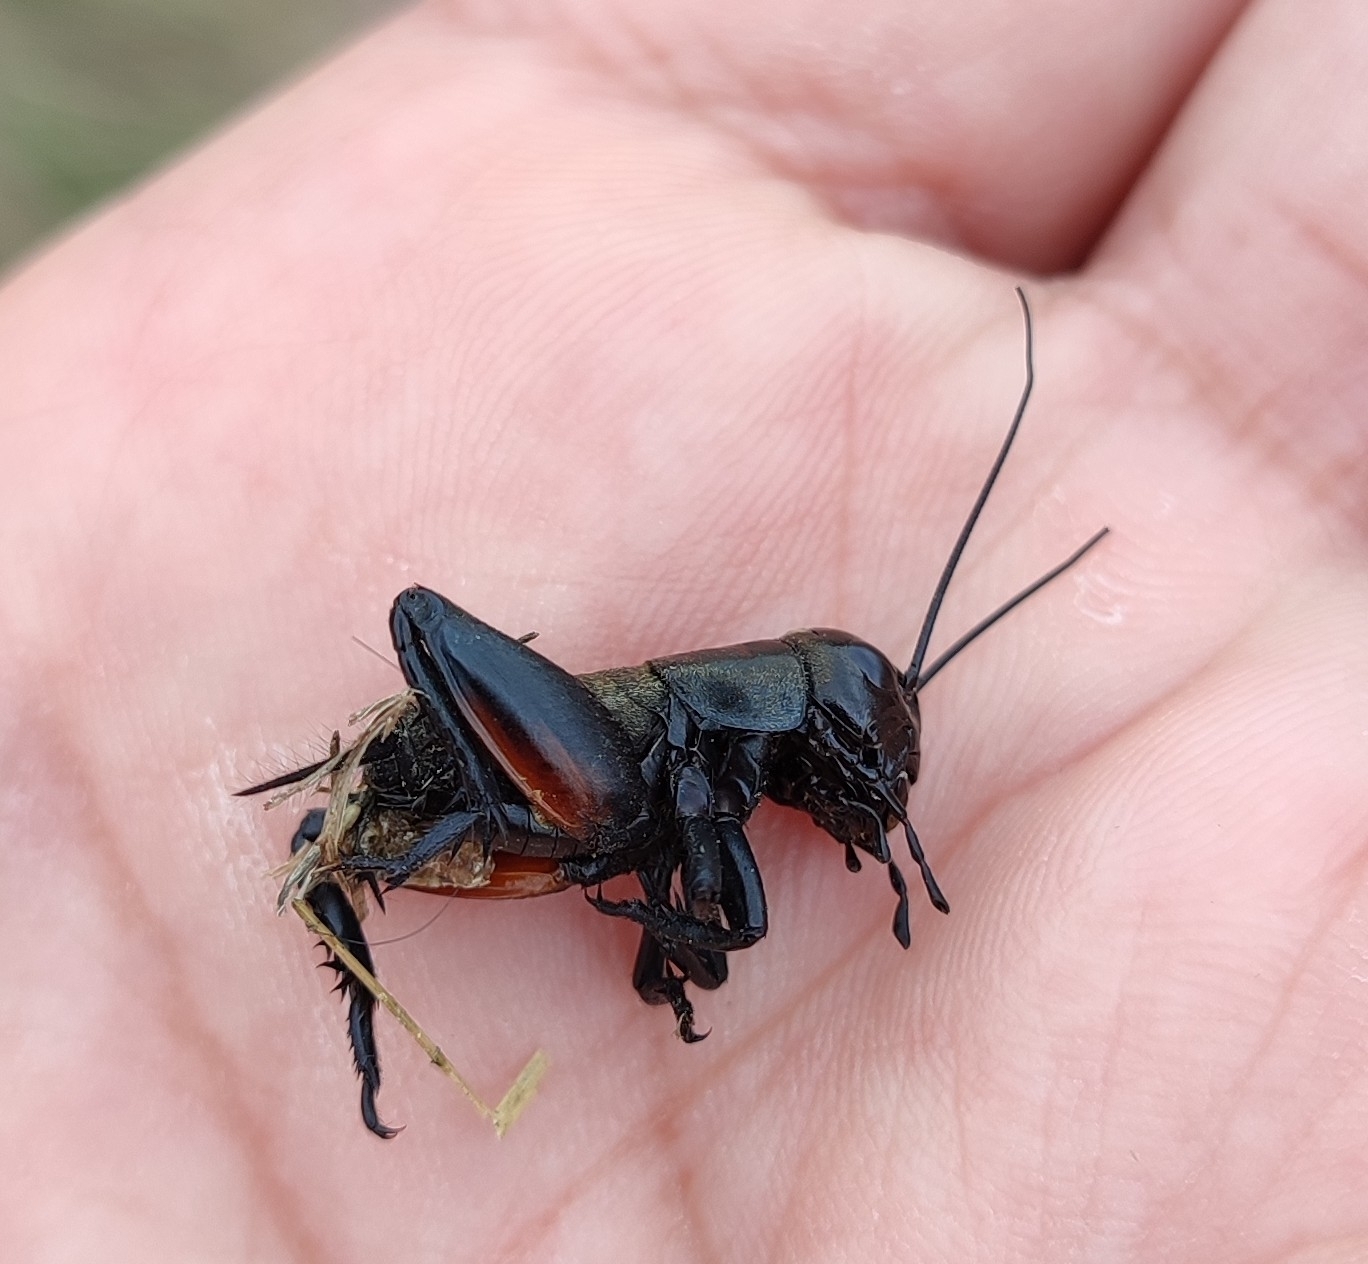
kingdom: Animalia
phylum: Arthropoda
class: Insecta
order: Orthoptera
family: Gryllidae
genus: Gryllus
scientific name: Gryllus campestris
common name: Field cricket
